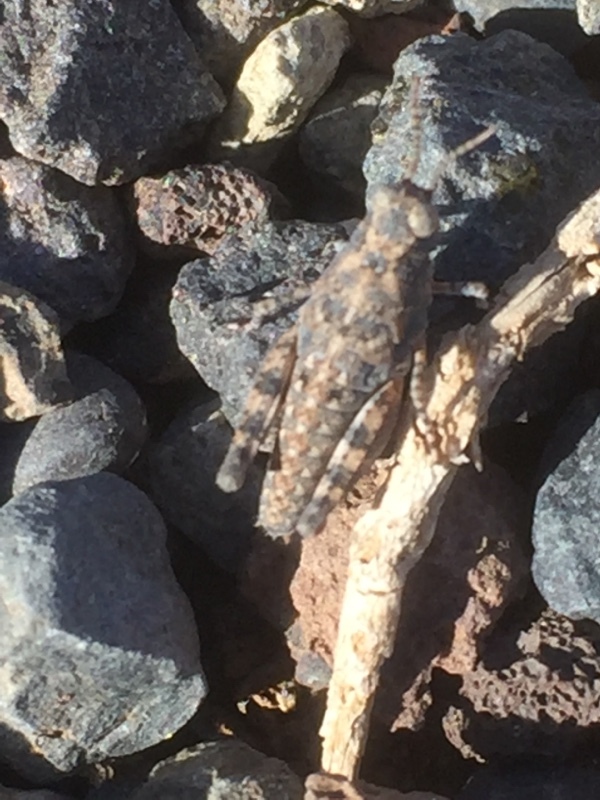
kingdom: Animalia
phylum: Arthropoda
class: Insecta
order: Orthoptera
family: Acrididae
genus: Sphingonotus
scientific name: Sphingonotus rubescens
